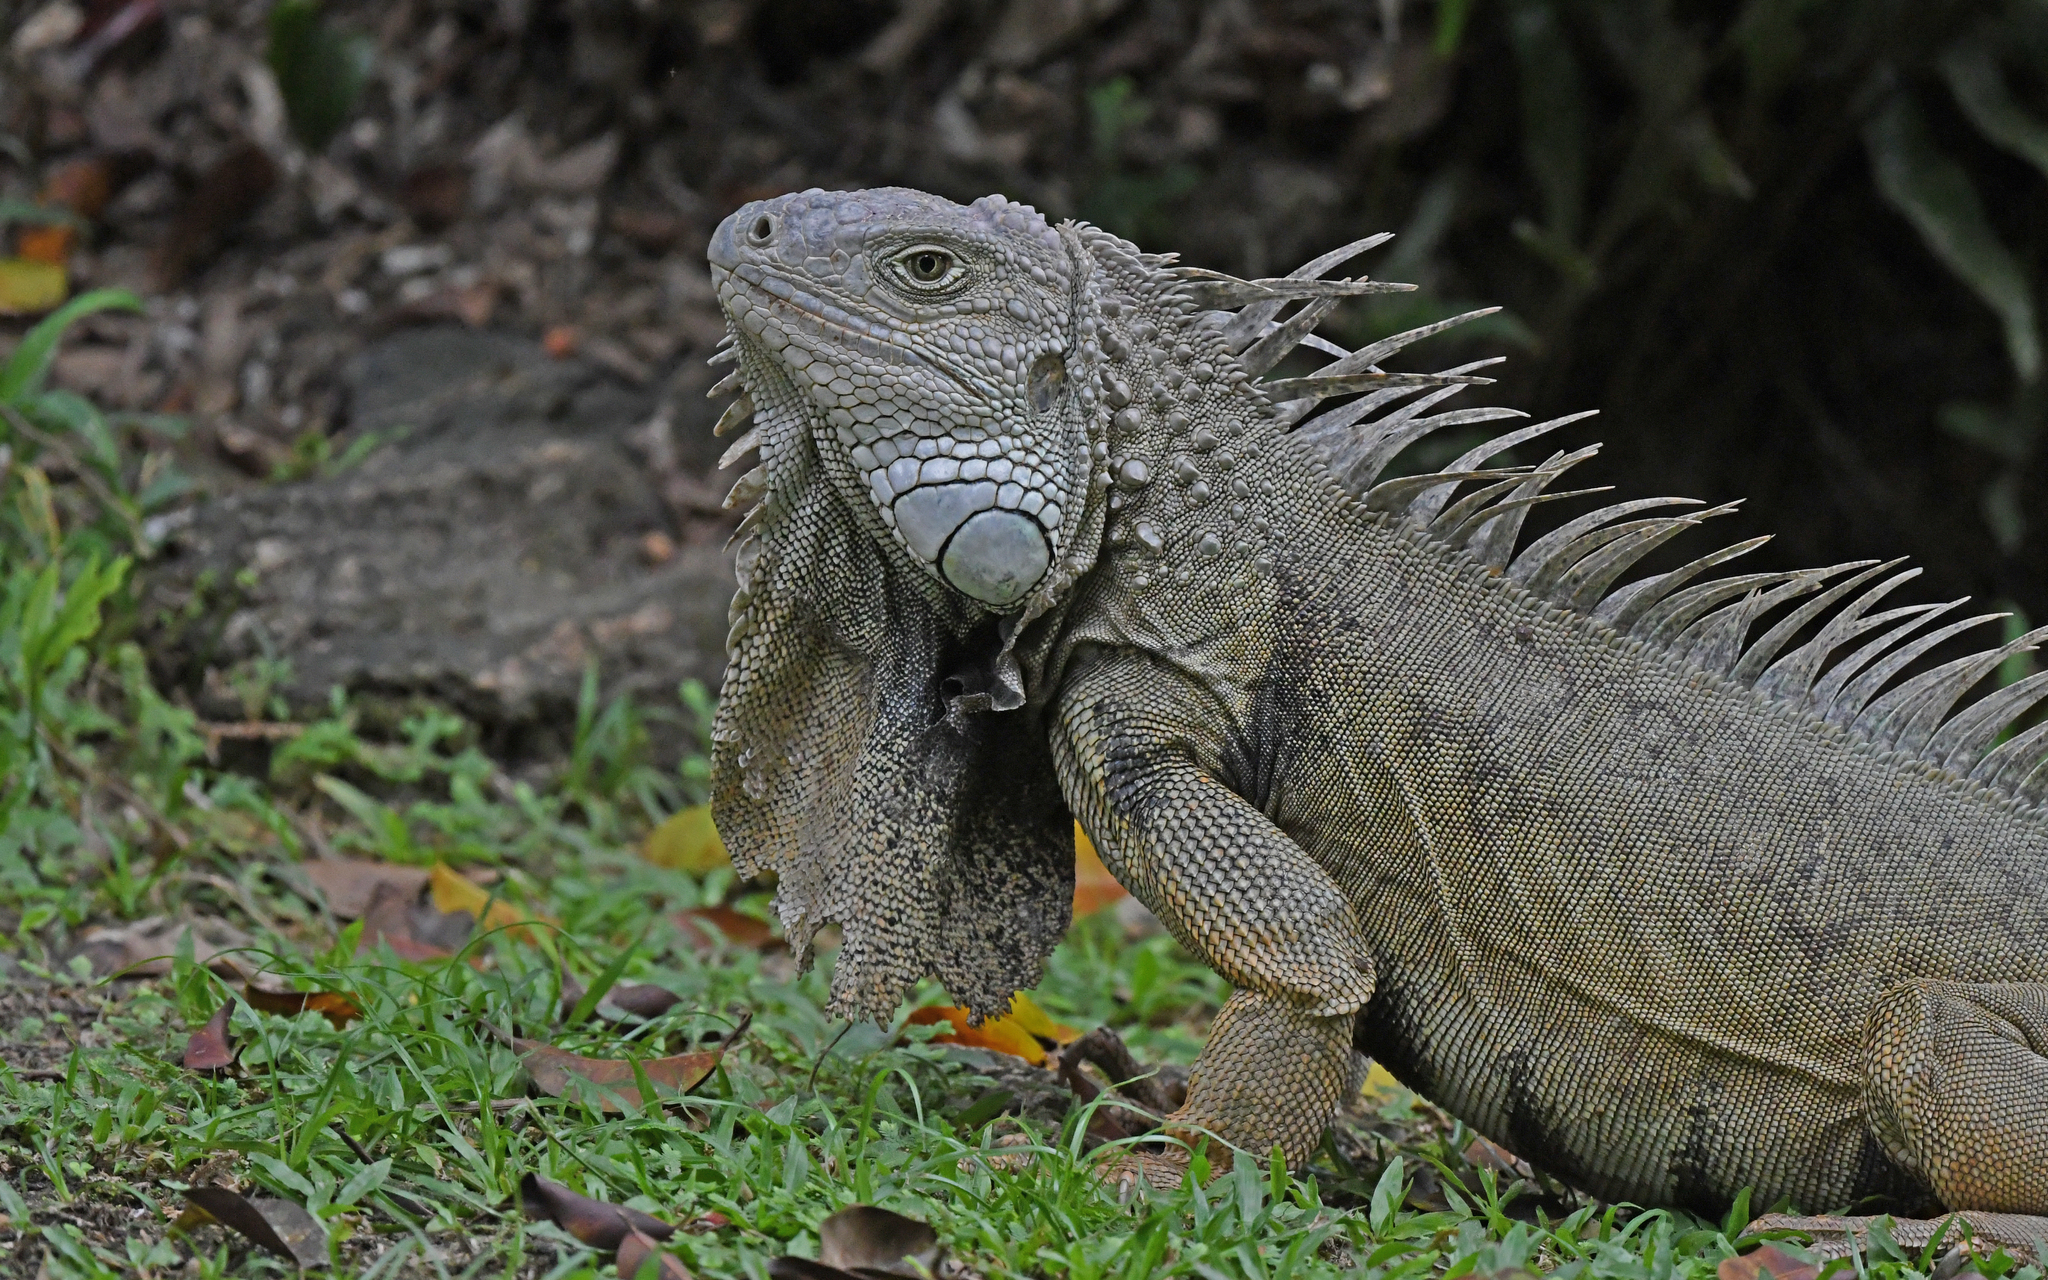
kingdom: Animalia
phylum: Chordata
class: Squamata
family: Iguanidae
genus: Iguana
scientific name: Iguana iguana
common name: Green iguana
